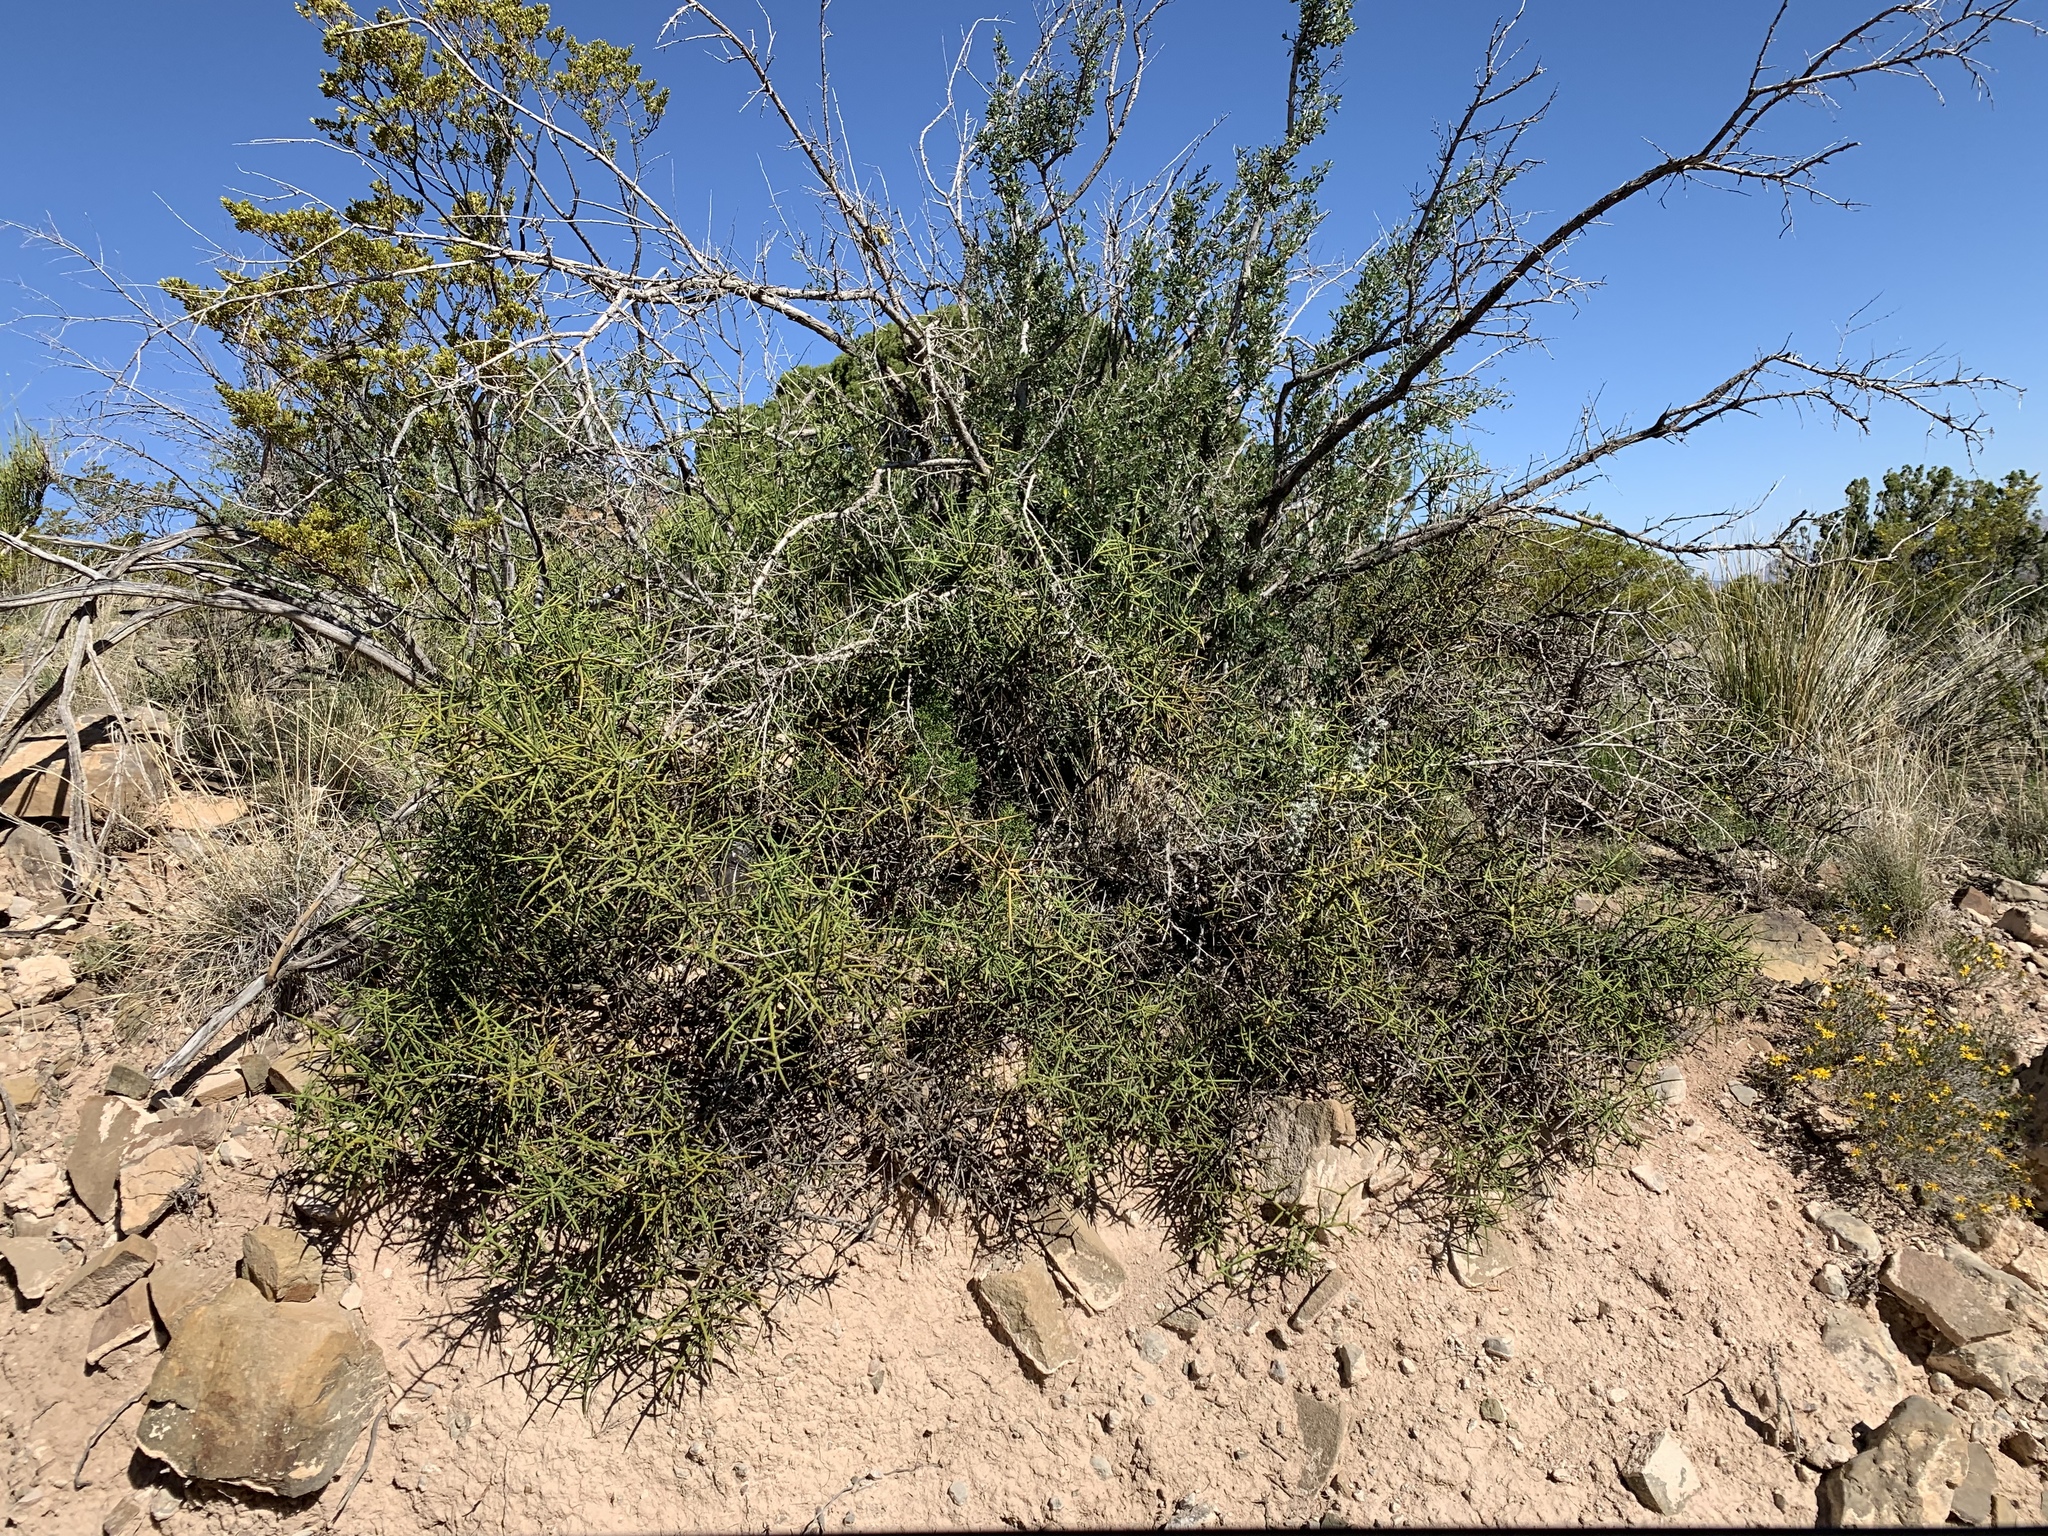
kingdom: Plantae
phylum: Tracheophyta
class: Magnoliopsida
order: Brassicales
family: Koeberliniaceae
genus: Koeberlinia
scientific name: Koeberlinia spinosa
